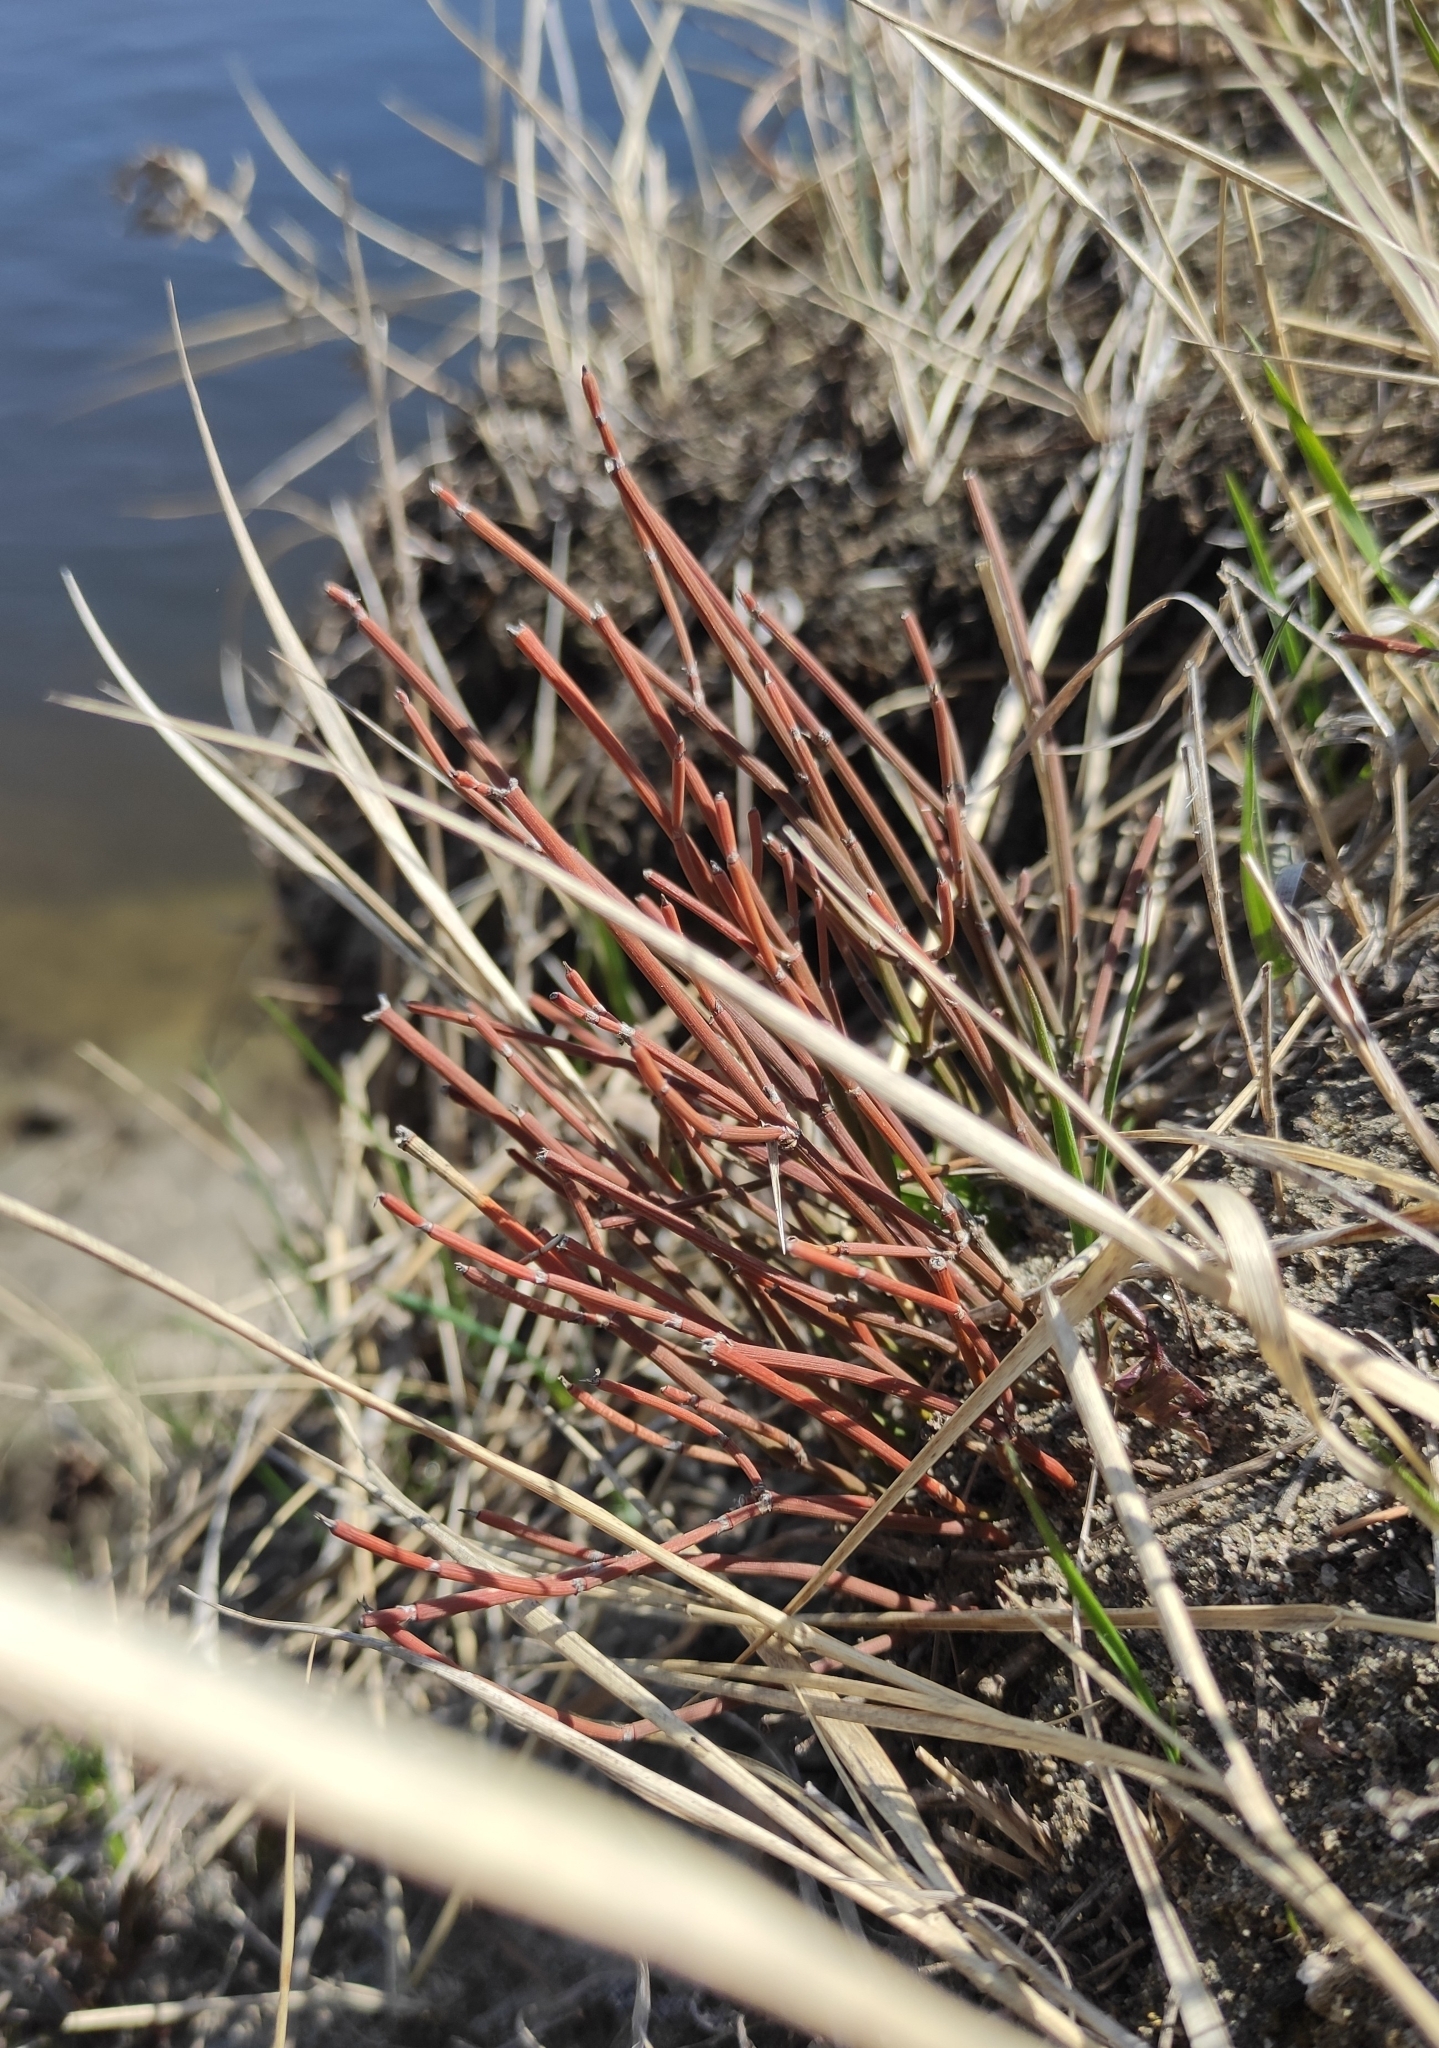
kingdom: Plantae
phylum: Tracheophyta
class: Gnetopsida
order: Ephedrales
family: Ephedraceae
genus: Ephedra
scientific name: Ephedra monosperma
